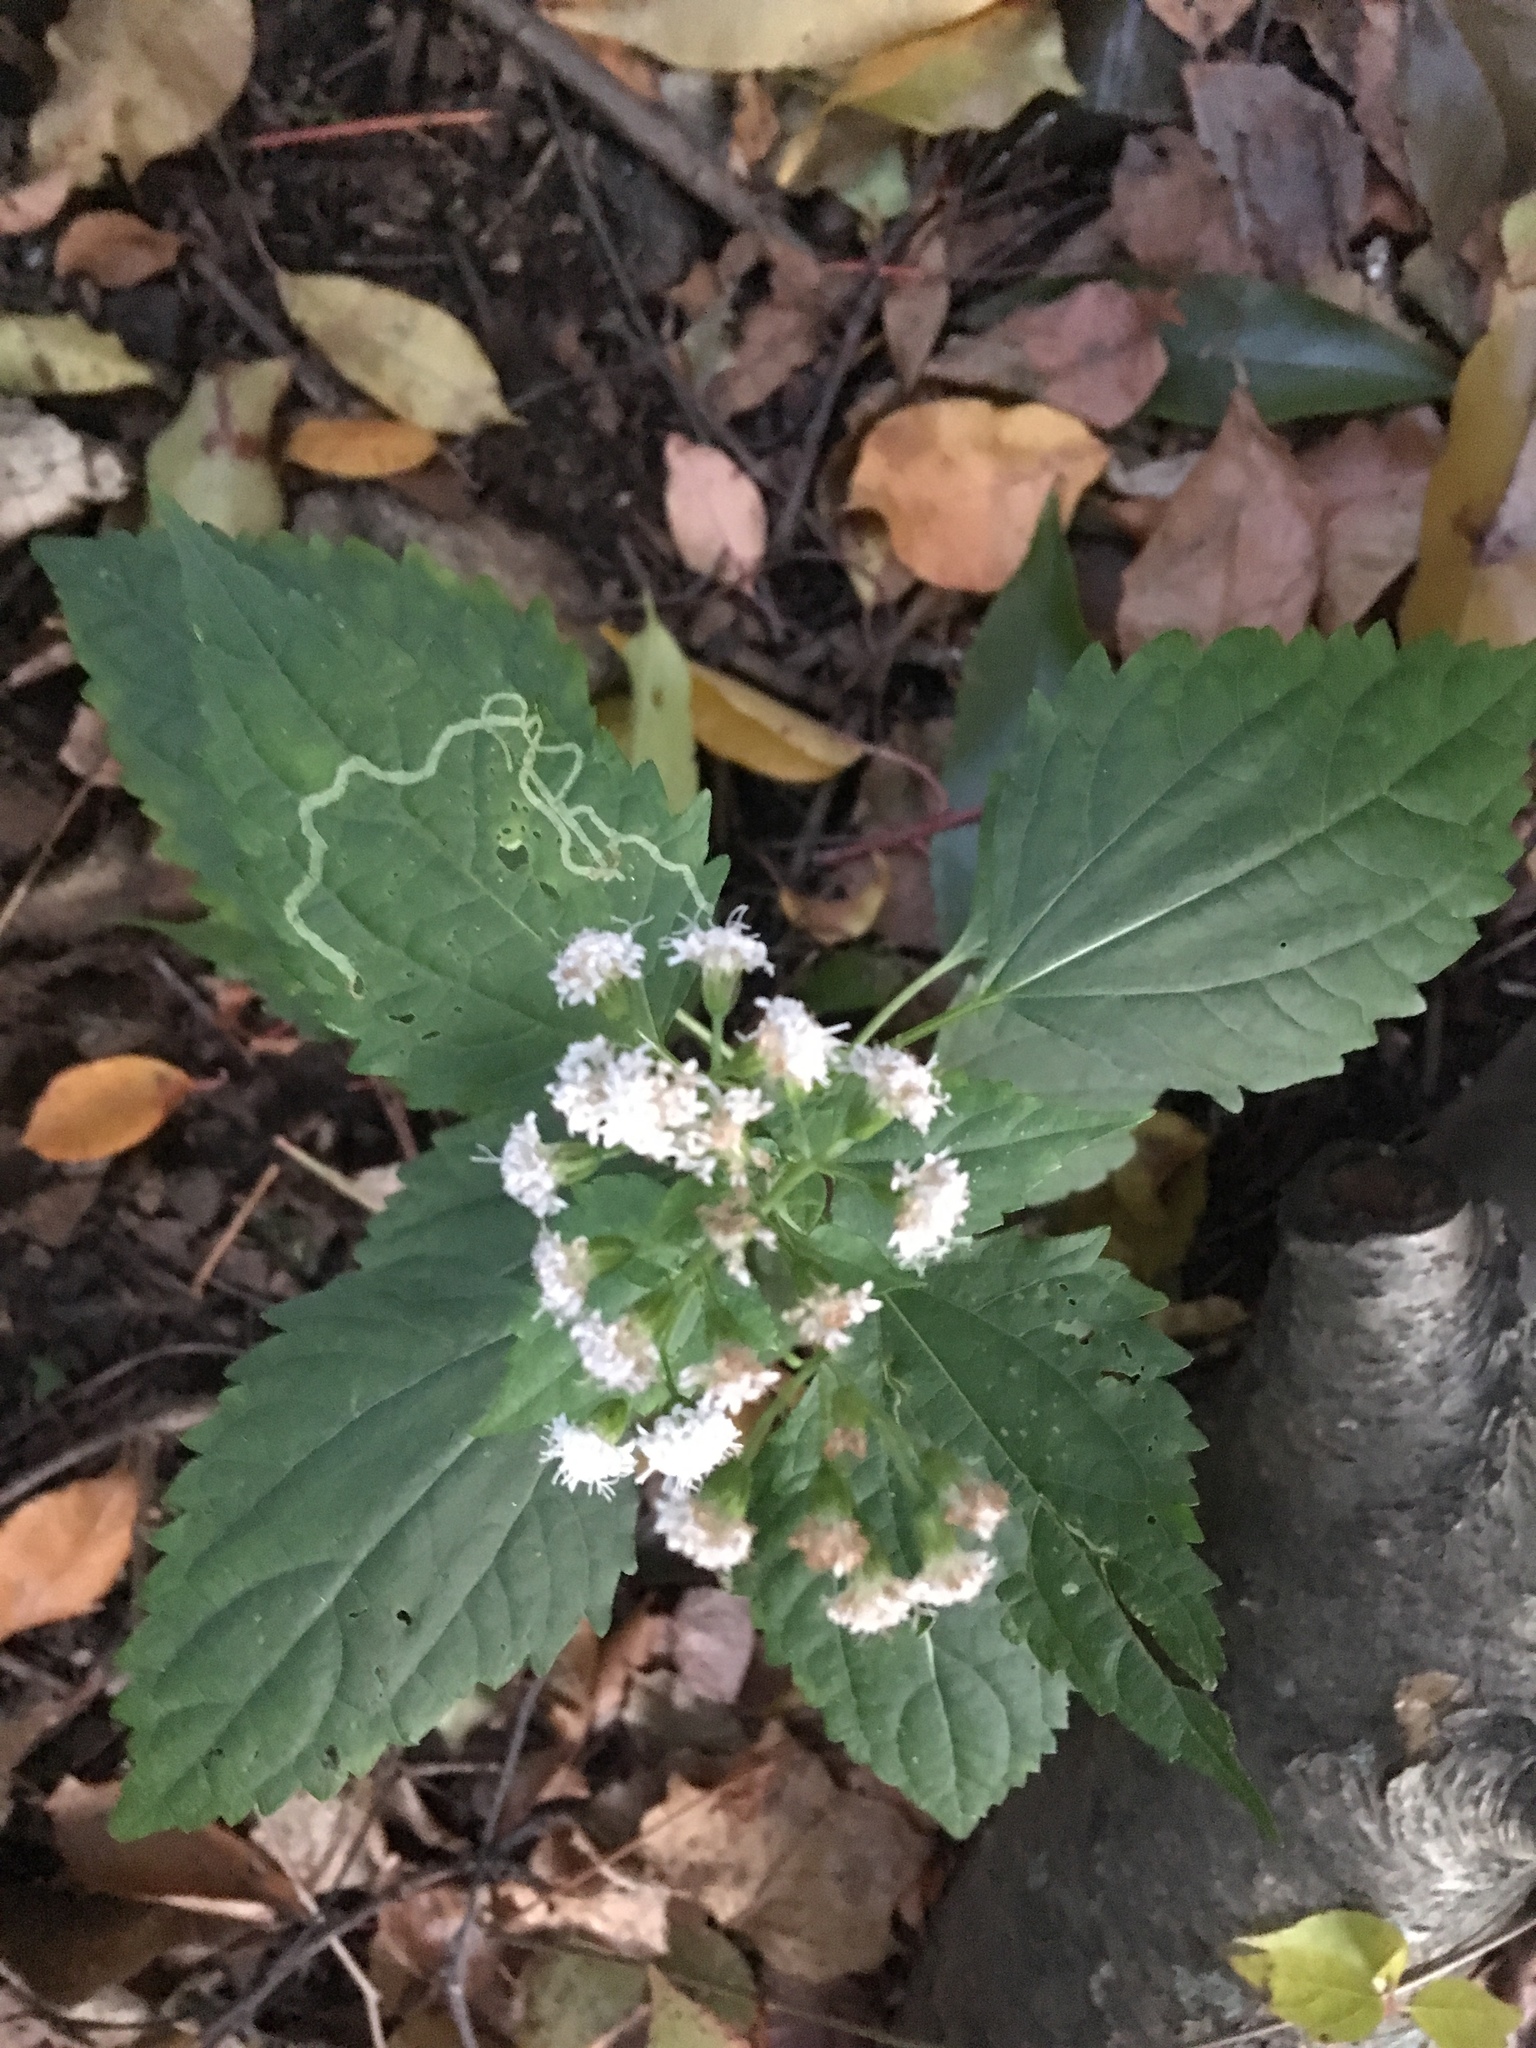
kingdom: Plantae
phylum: Tracheophyta
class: Magnoliopsida
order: Asterales
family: Asteraceae
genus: Ageratina
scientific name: Ageratina altissima
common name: White snakeroot
